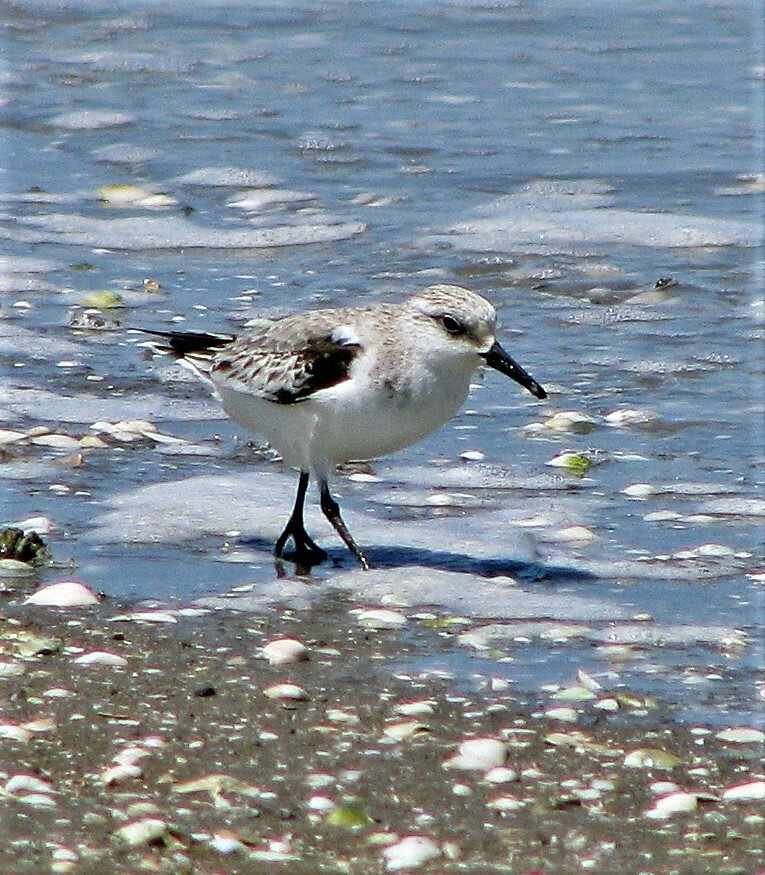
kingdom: Animalia
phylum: Chordata
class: Aves
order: Charadriiformes
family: Scolopacidae
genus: Calidris
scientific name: Calidris alba
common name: Sanderling
